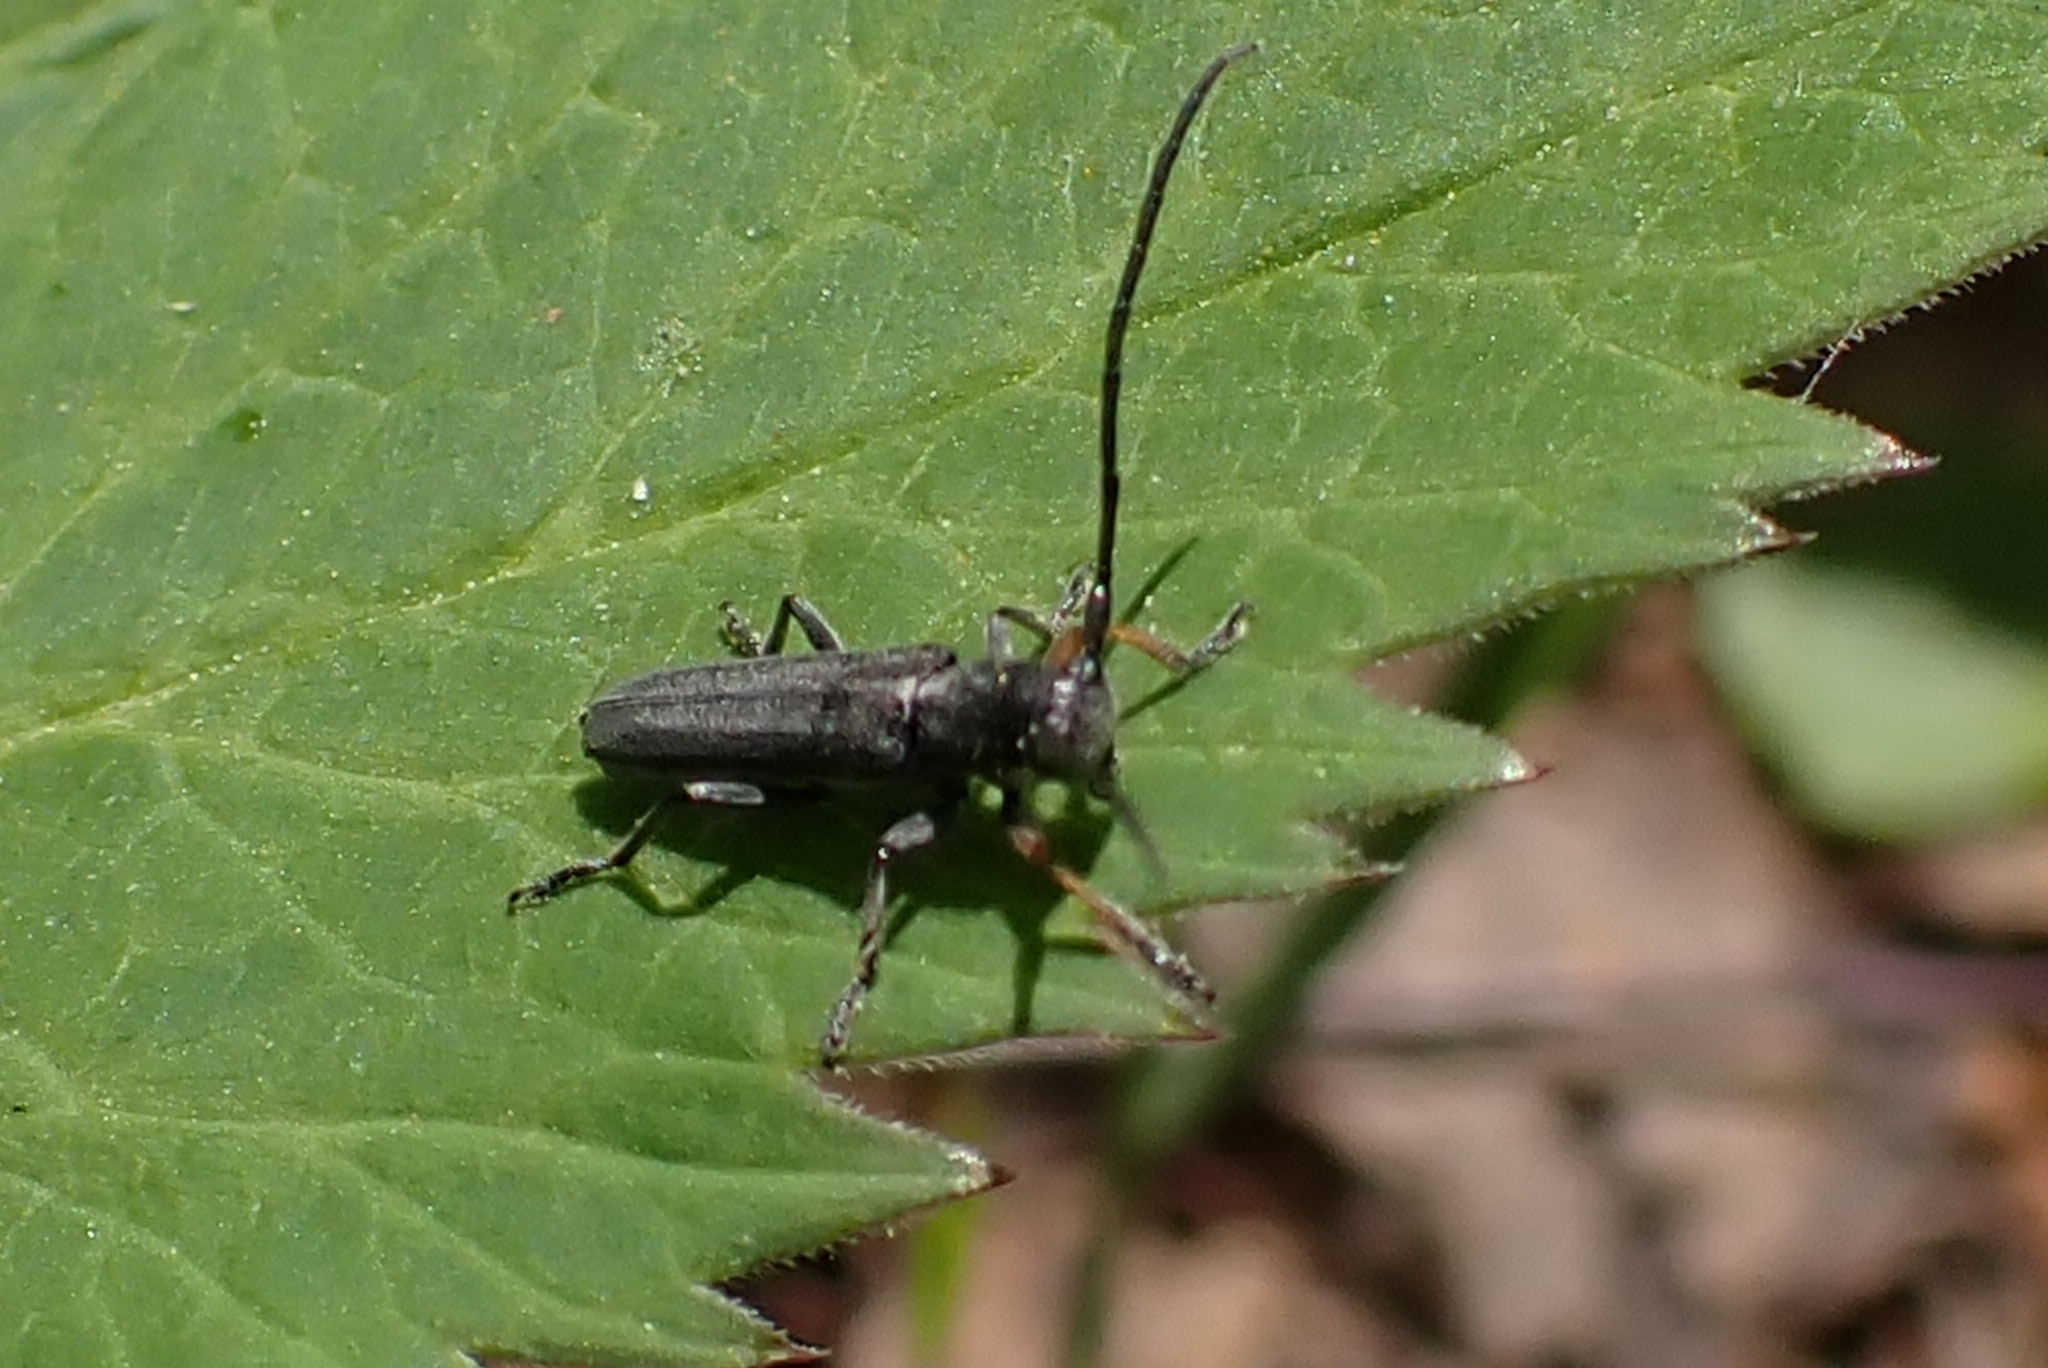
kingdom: Animalia
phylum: Arthropoda
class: Insecta
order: Coleoptera
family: Cerambycidae
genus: Phytoecia
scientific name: Phytoecia cylindrica
